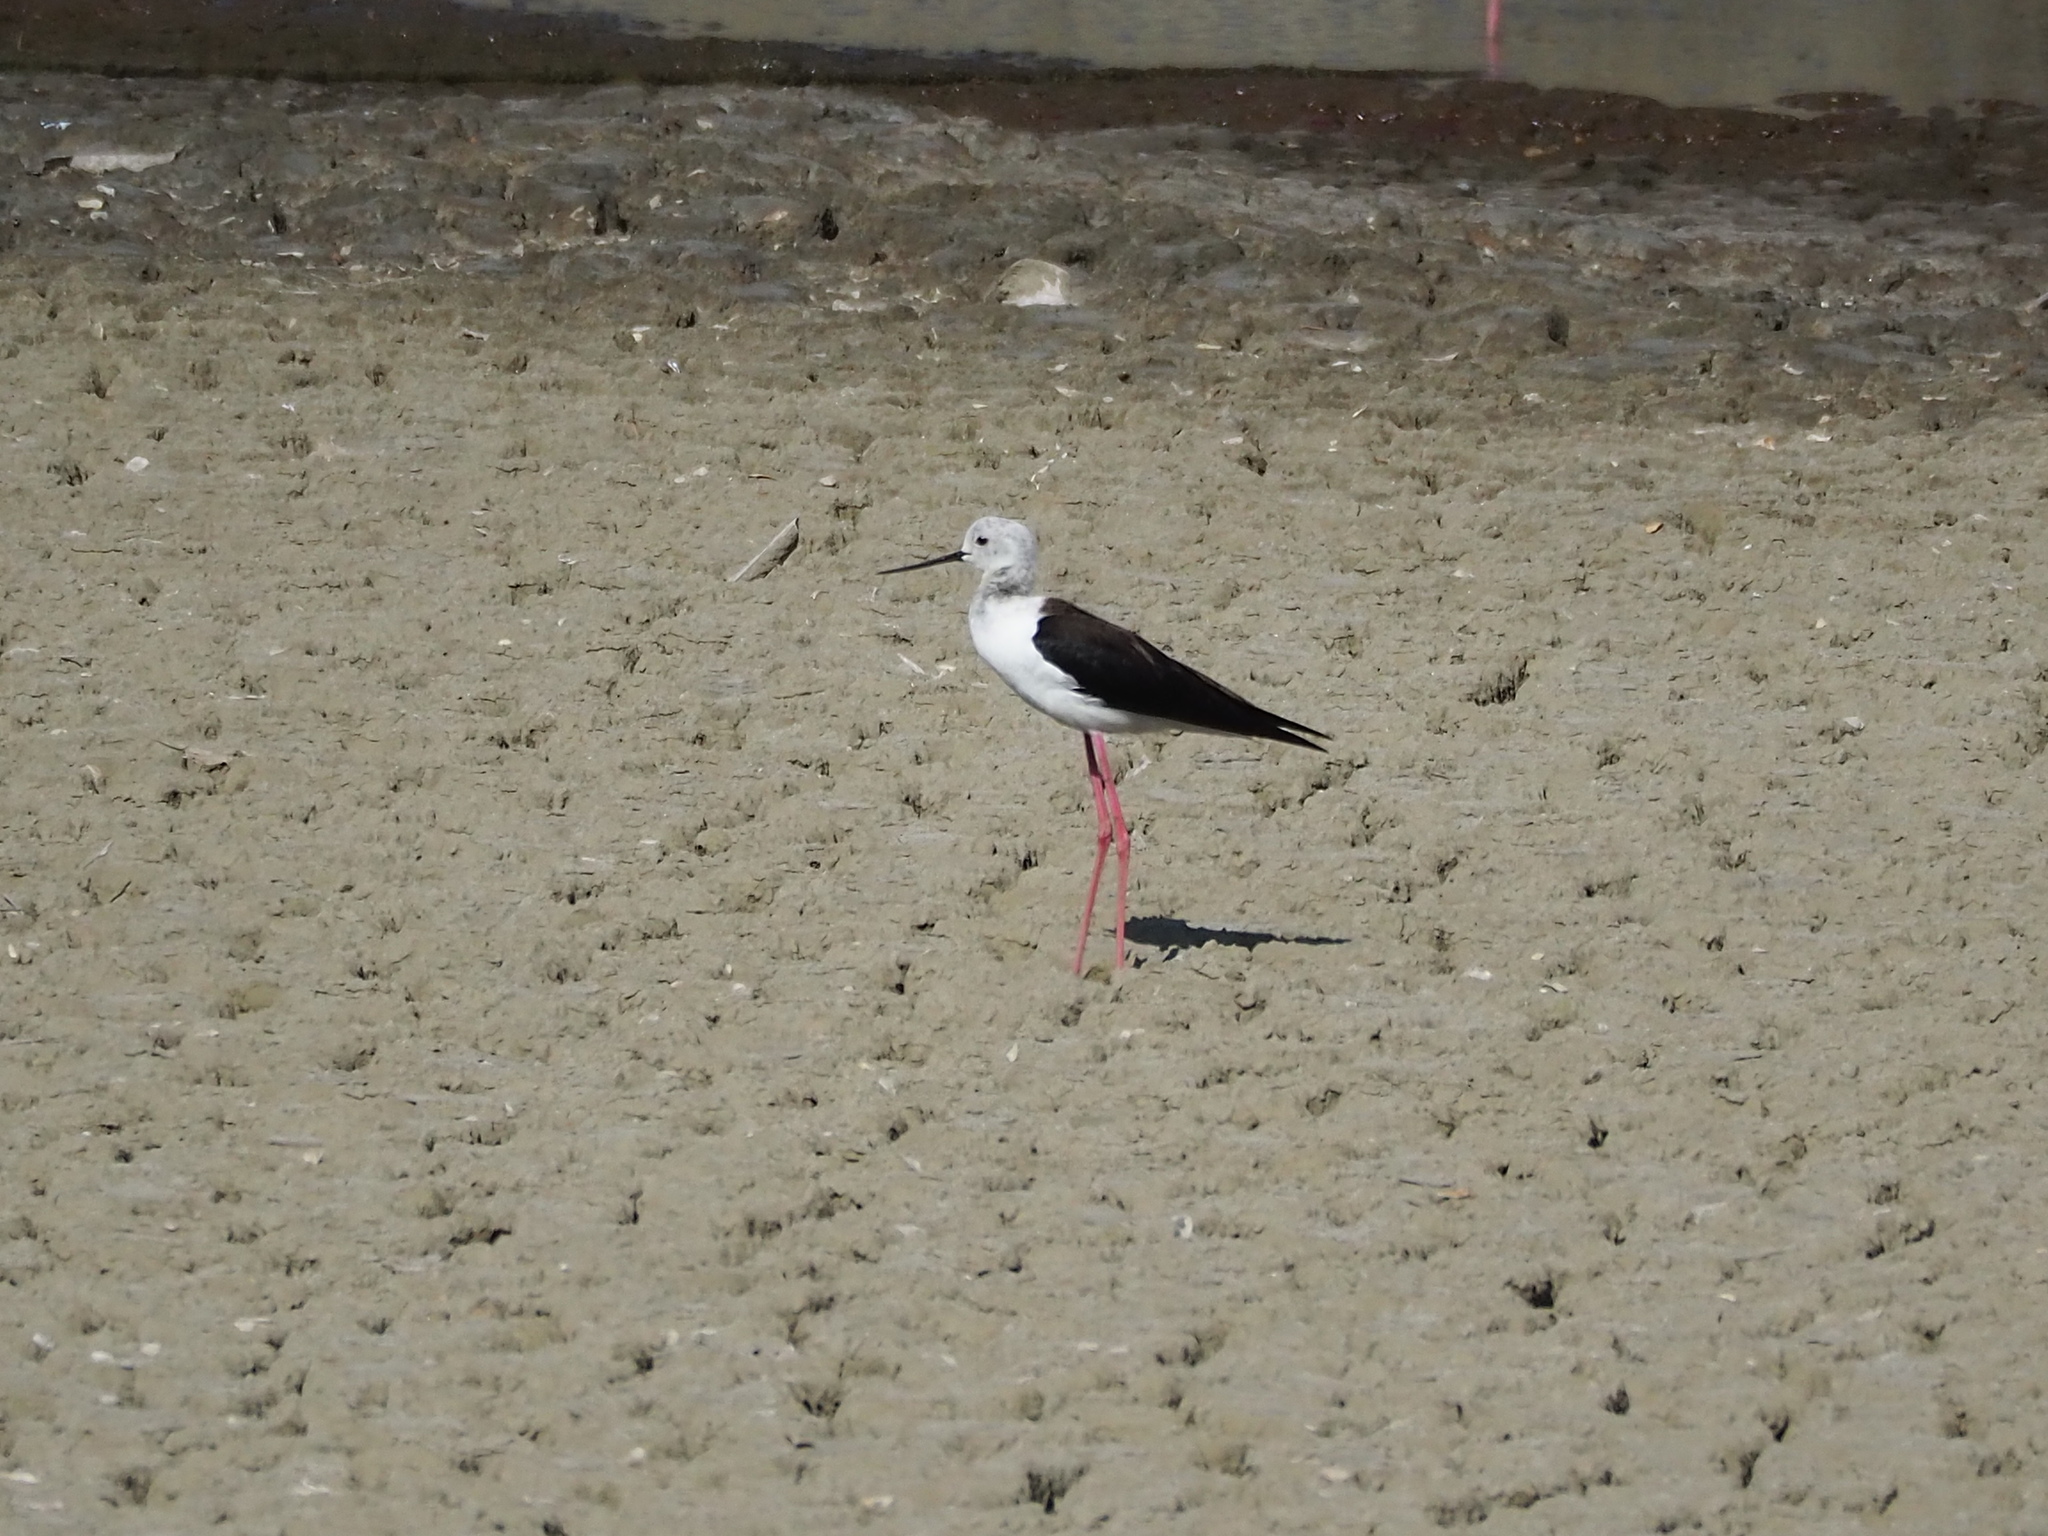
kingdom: Animalia
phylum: Chordata
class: Aves
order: Charadriiformes
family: Recurvirostridae
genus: Himantopus
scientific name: Himantopus himantopus
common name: Black-winged stilt
